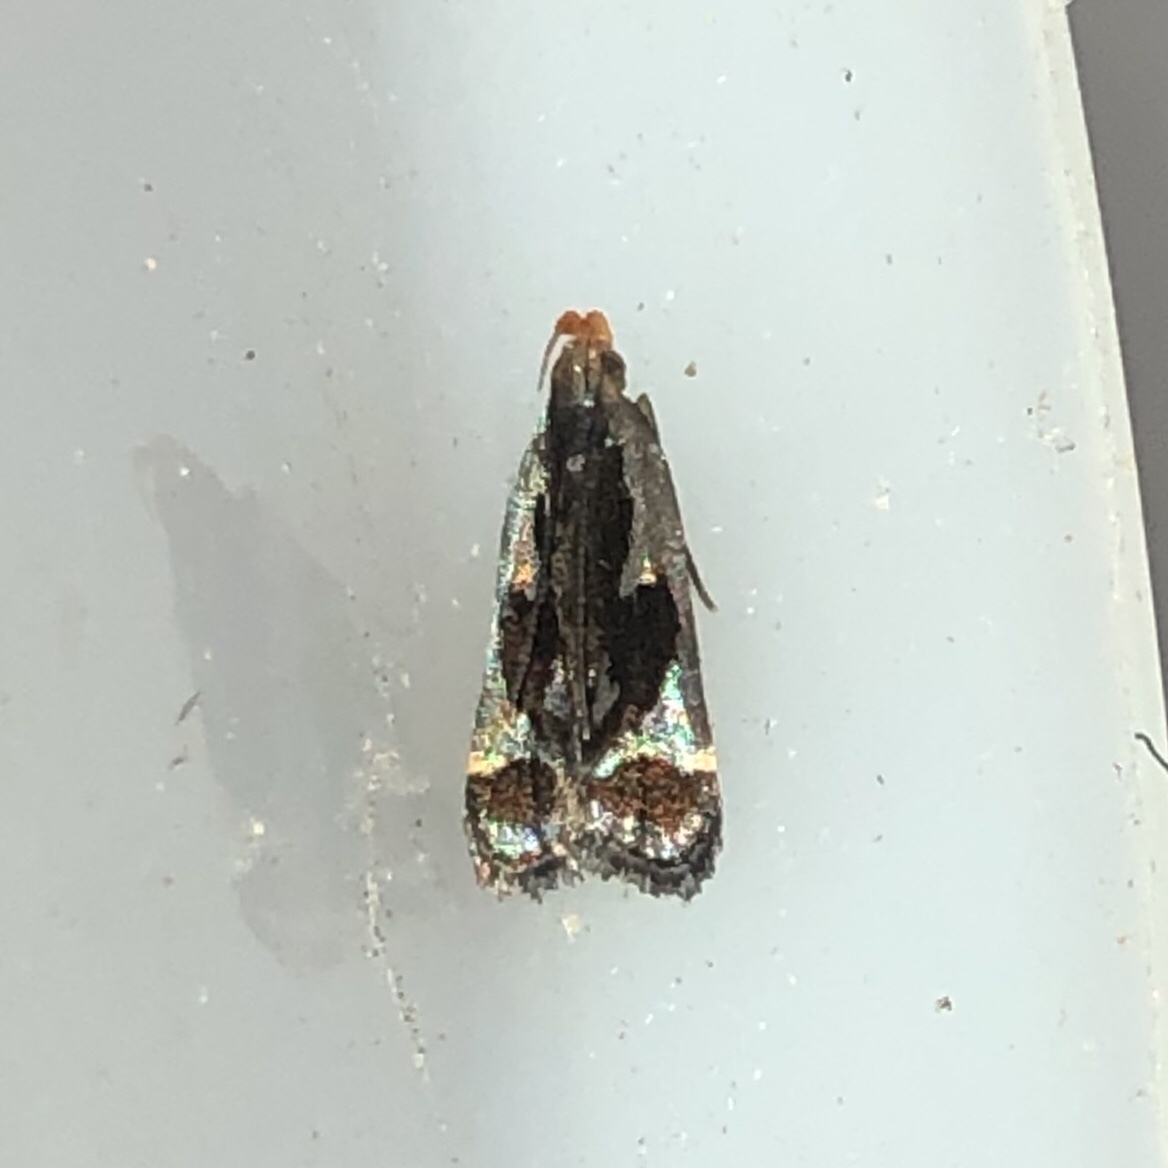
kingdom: Animalia
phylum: Arthropoda
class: Insecta
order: Lepidoptera
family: Gelechiidae
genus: Dichomeris
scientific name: Dichomeris ochripalpella
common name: Shining dichomeris moth
